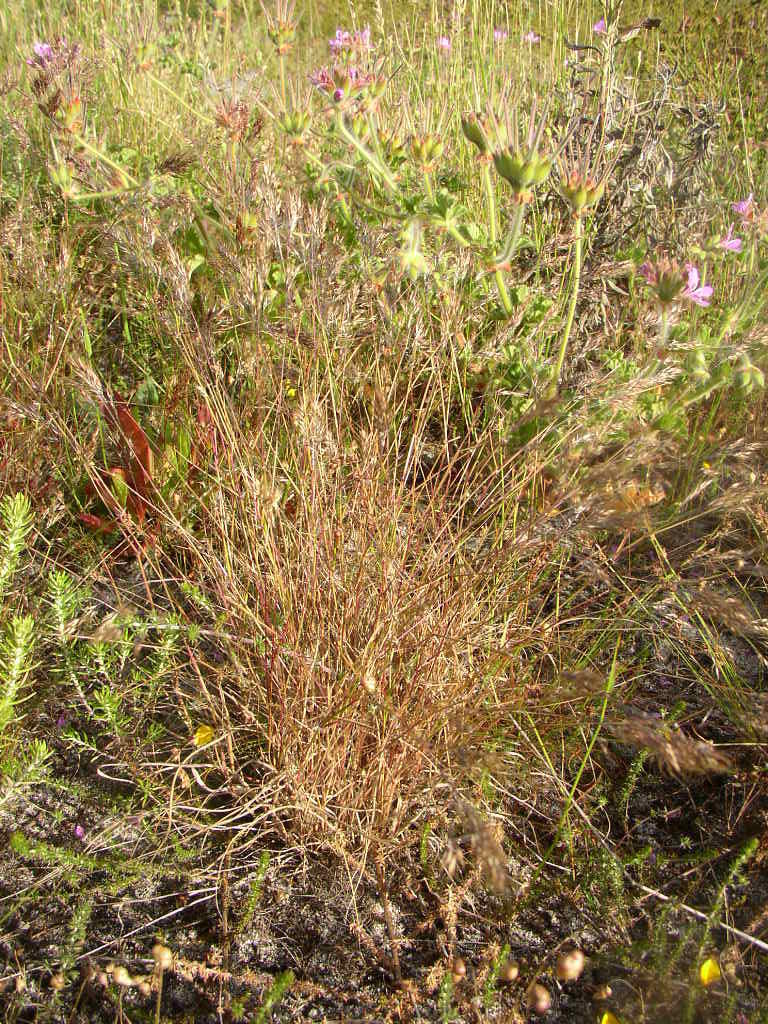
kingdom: Plantae
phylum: Tracheophyta
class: Liliopsida
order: Poales
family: Poaceae
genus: Pentameris
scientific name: Pentameris pallida
